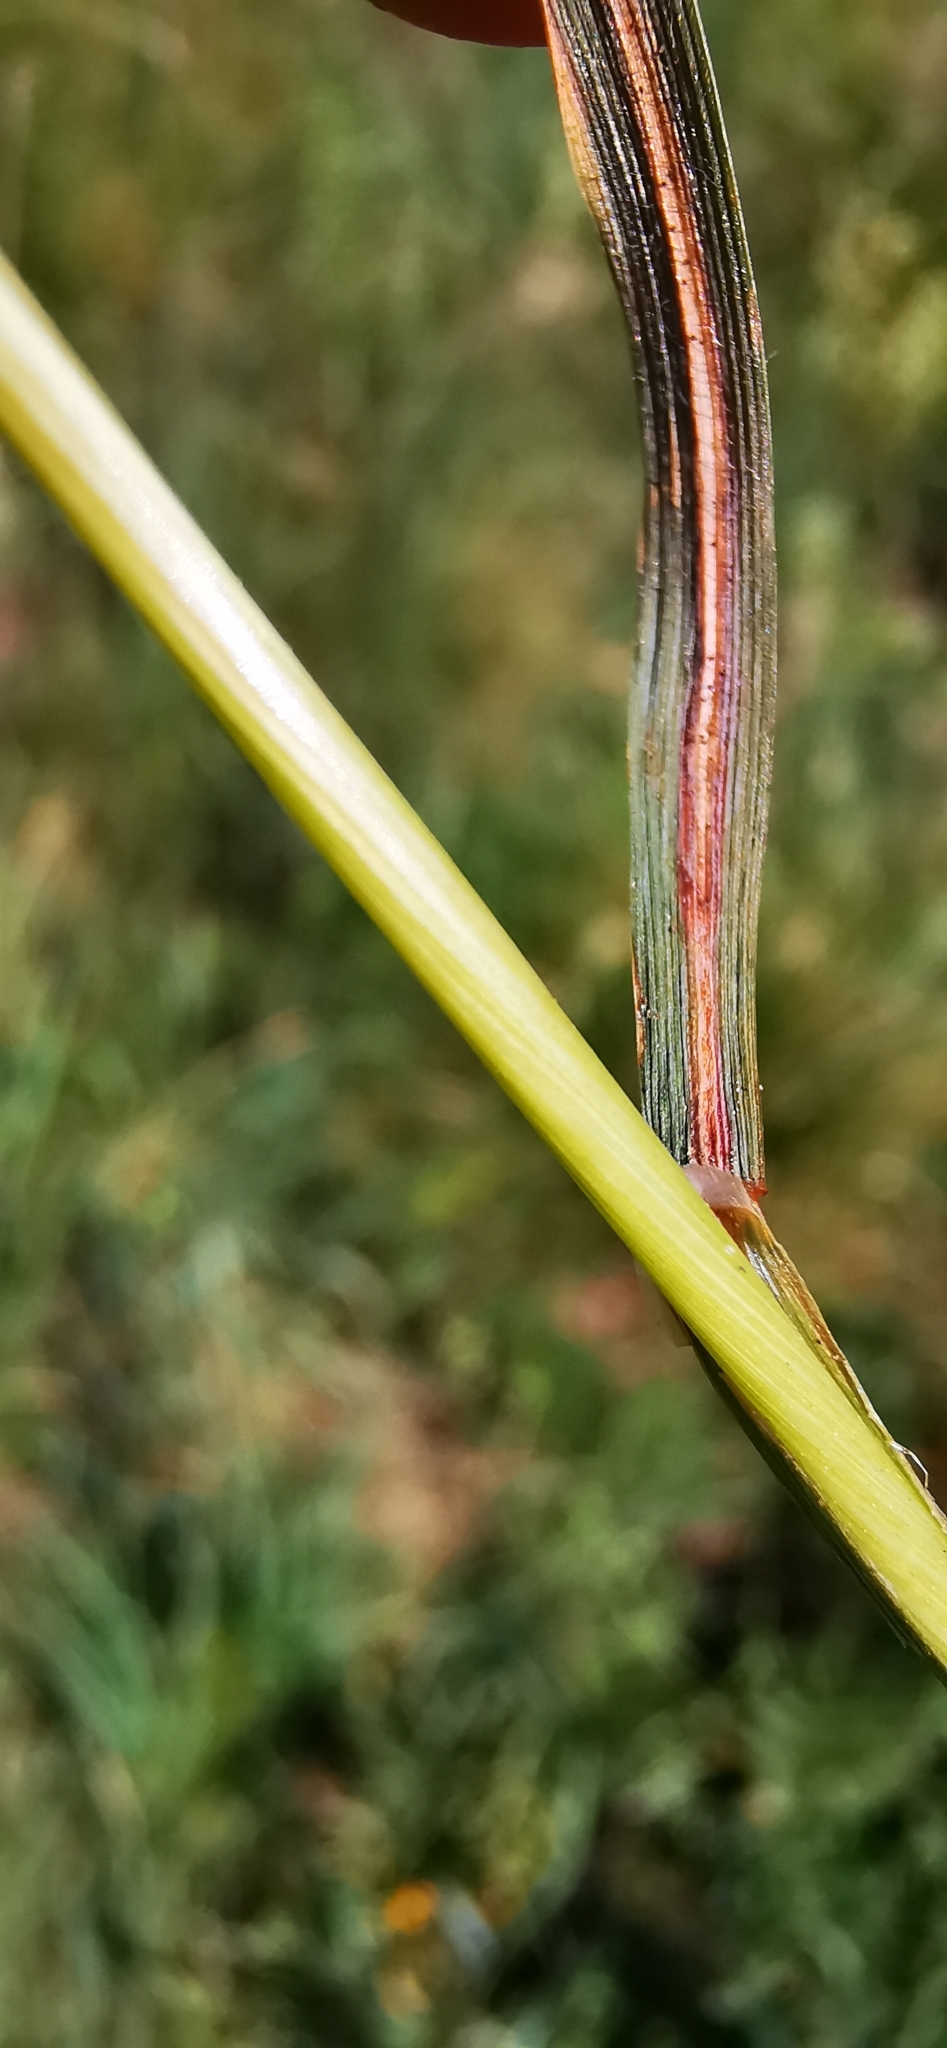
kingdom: Plantae
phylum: Tracheophyta
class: Liliopsida
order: Poales
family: Poaceae
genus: Arrhenatherum
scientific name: Arrhenatherum elatius
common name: Tall oatgrass
